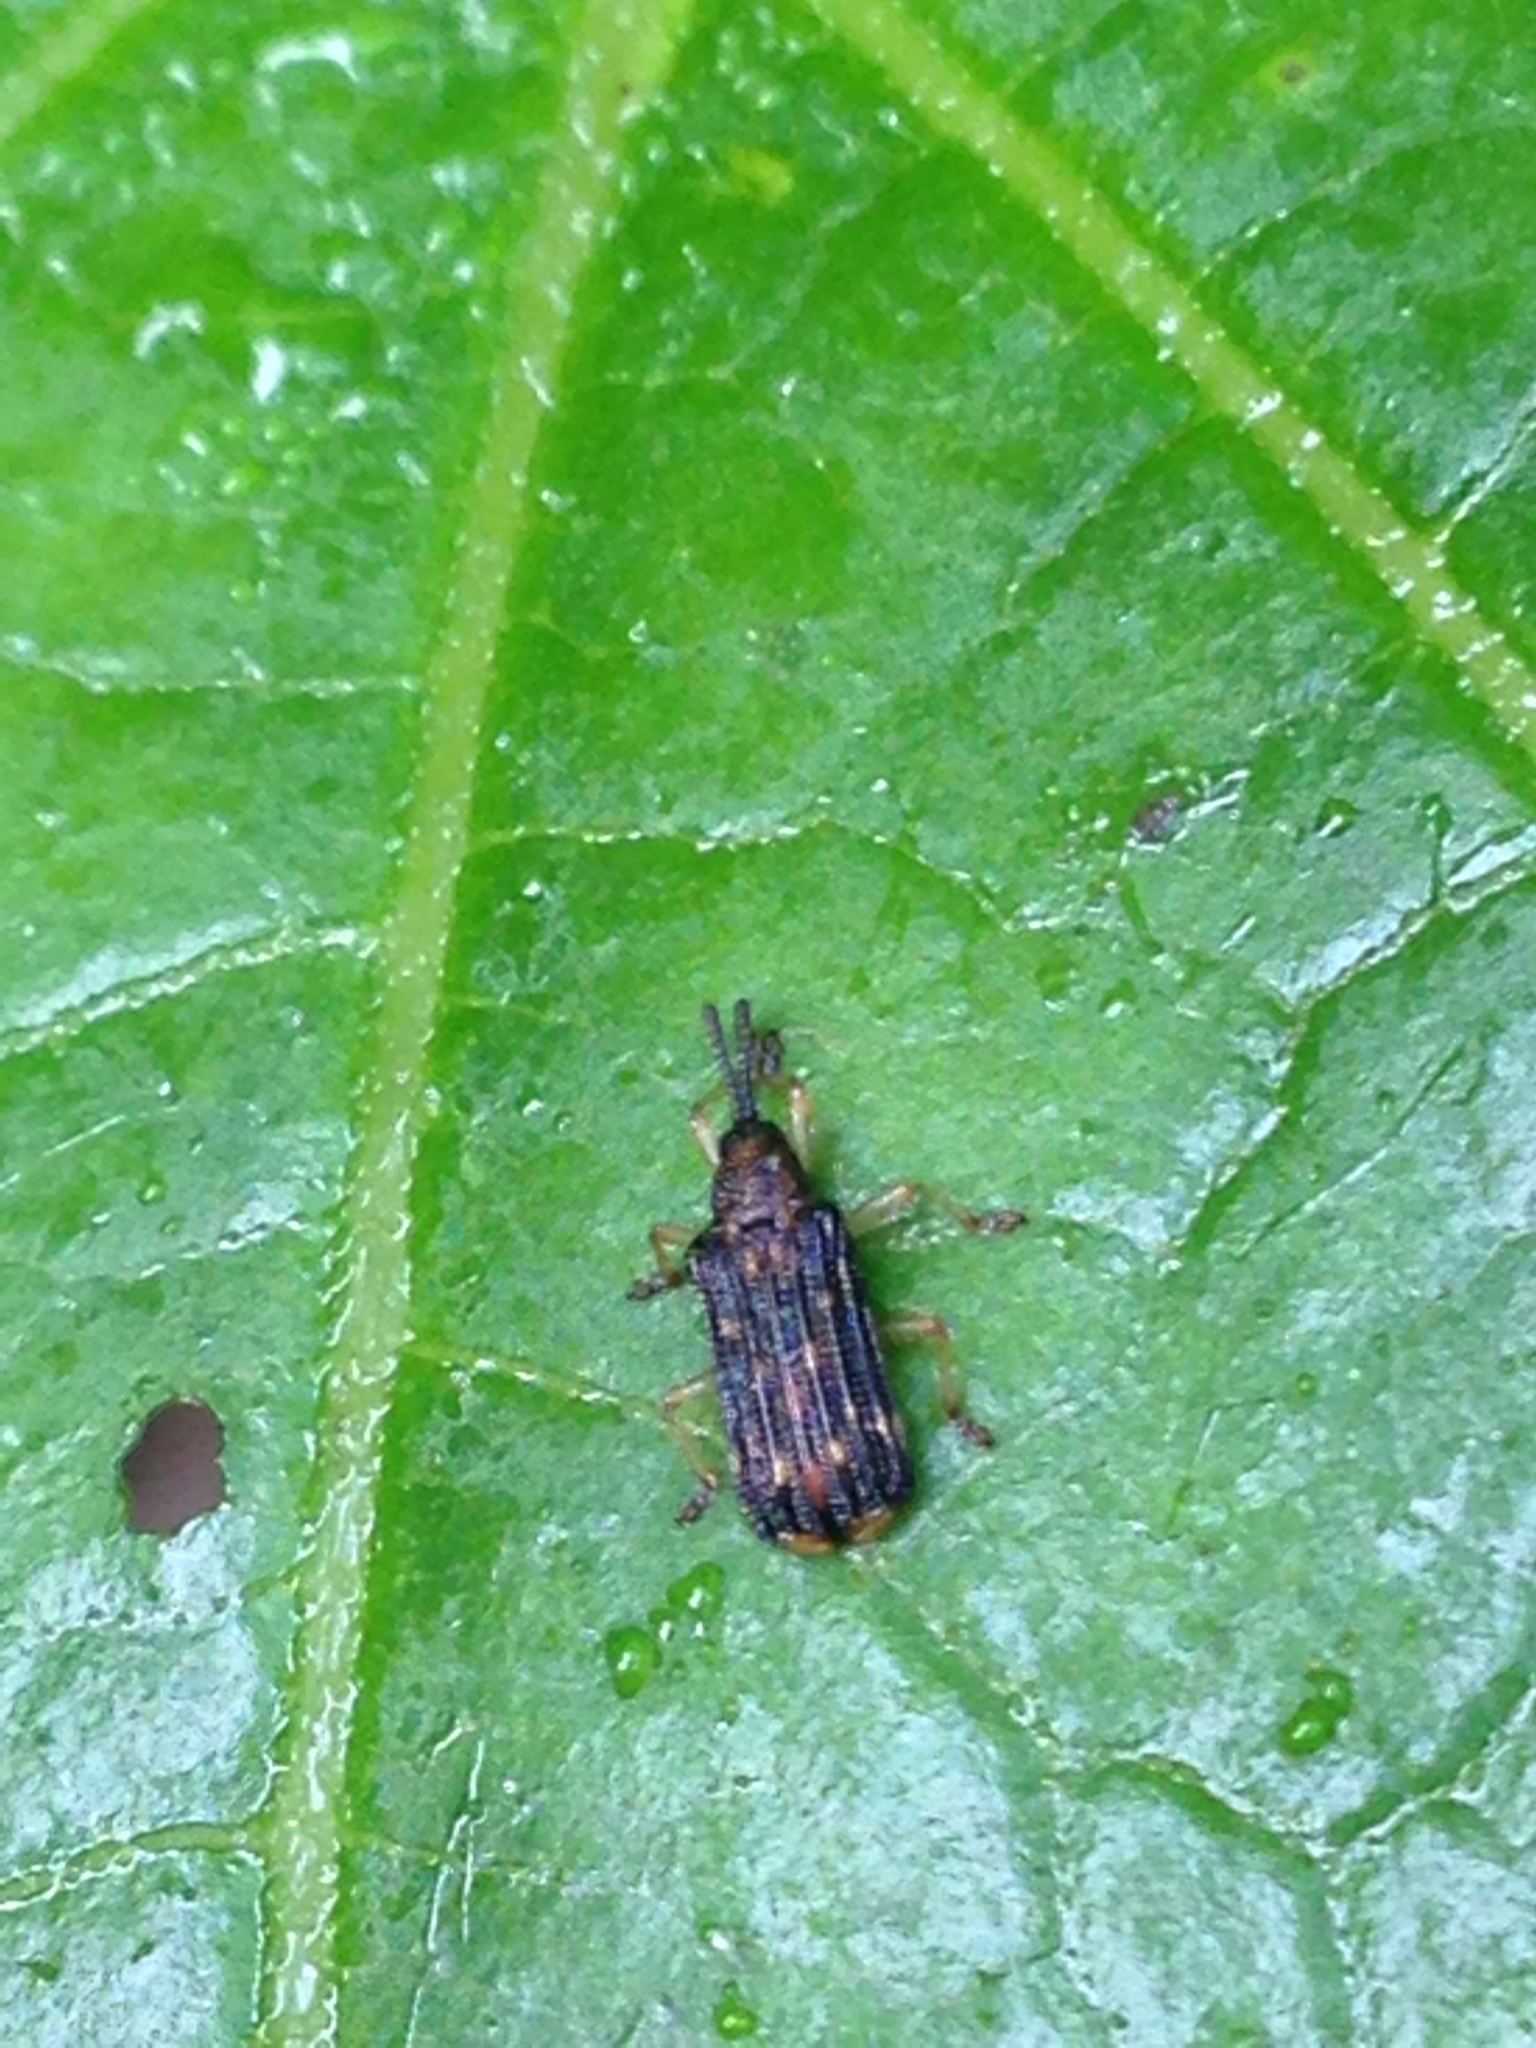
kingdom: Animalia
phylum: Arthropoda
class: Insecta
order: Coleoptera
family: Chrysomelidae
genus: Sumitrosis
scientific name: Sumitrosis inaequalis
